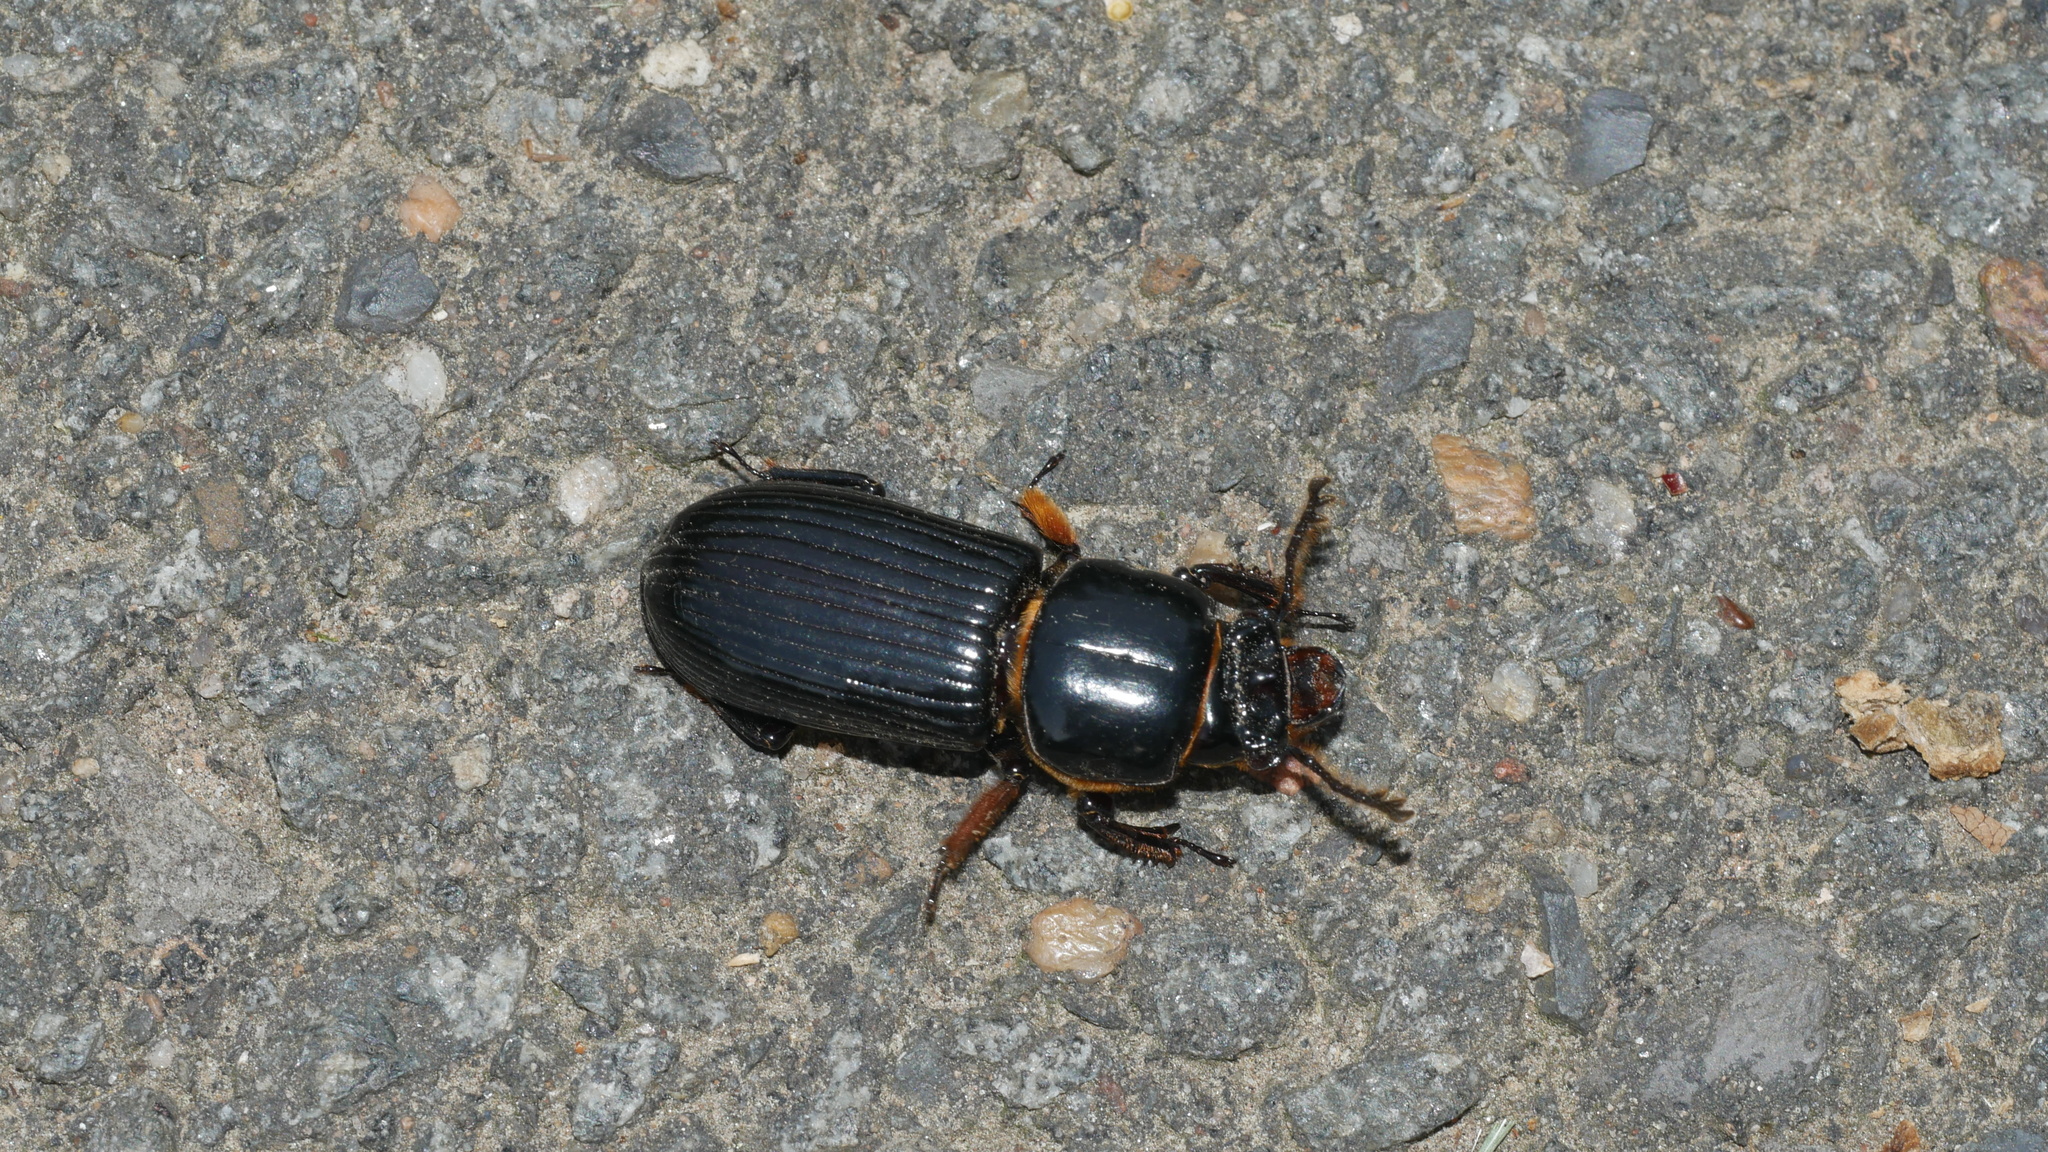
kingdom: Animalia
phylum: Arthropoda
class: Insecta
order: Coleoptera
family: Passalidae
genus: Odontotaenius
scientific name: Odontotaenius disjunctus
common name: Patent leather beetle
